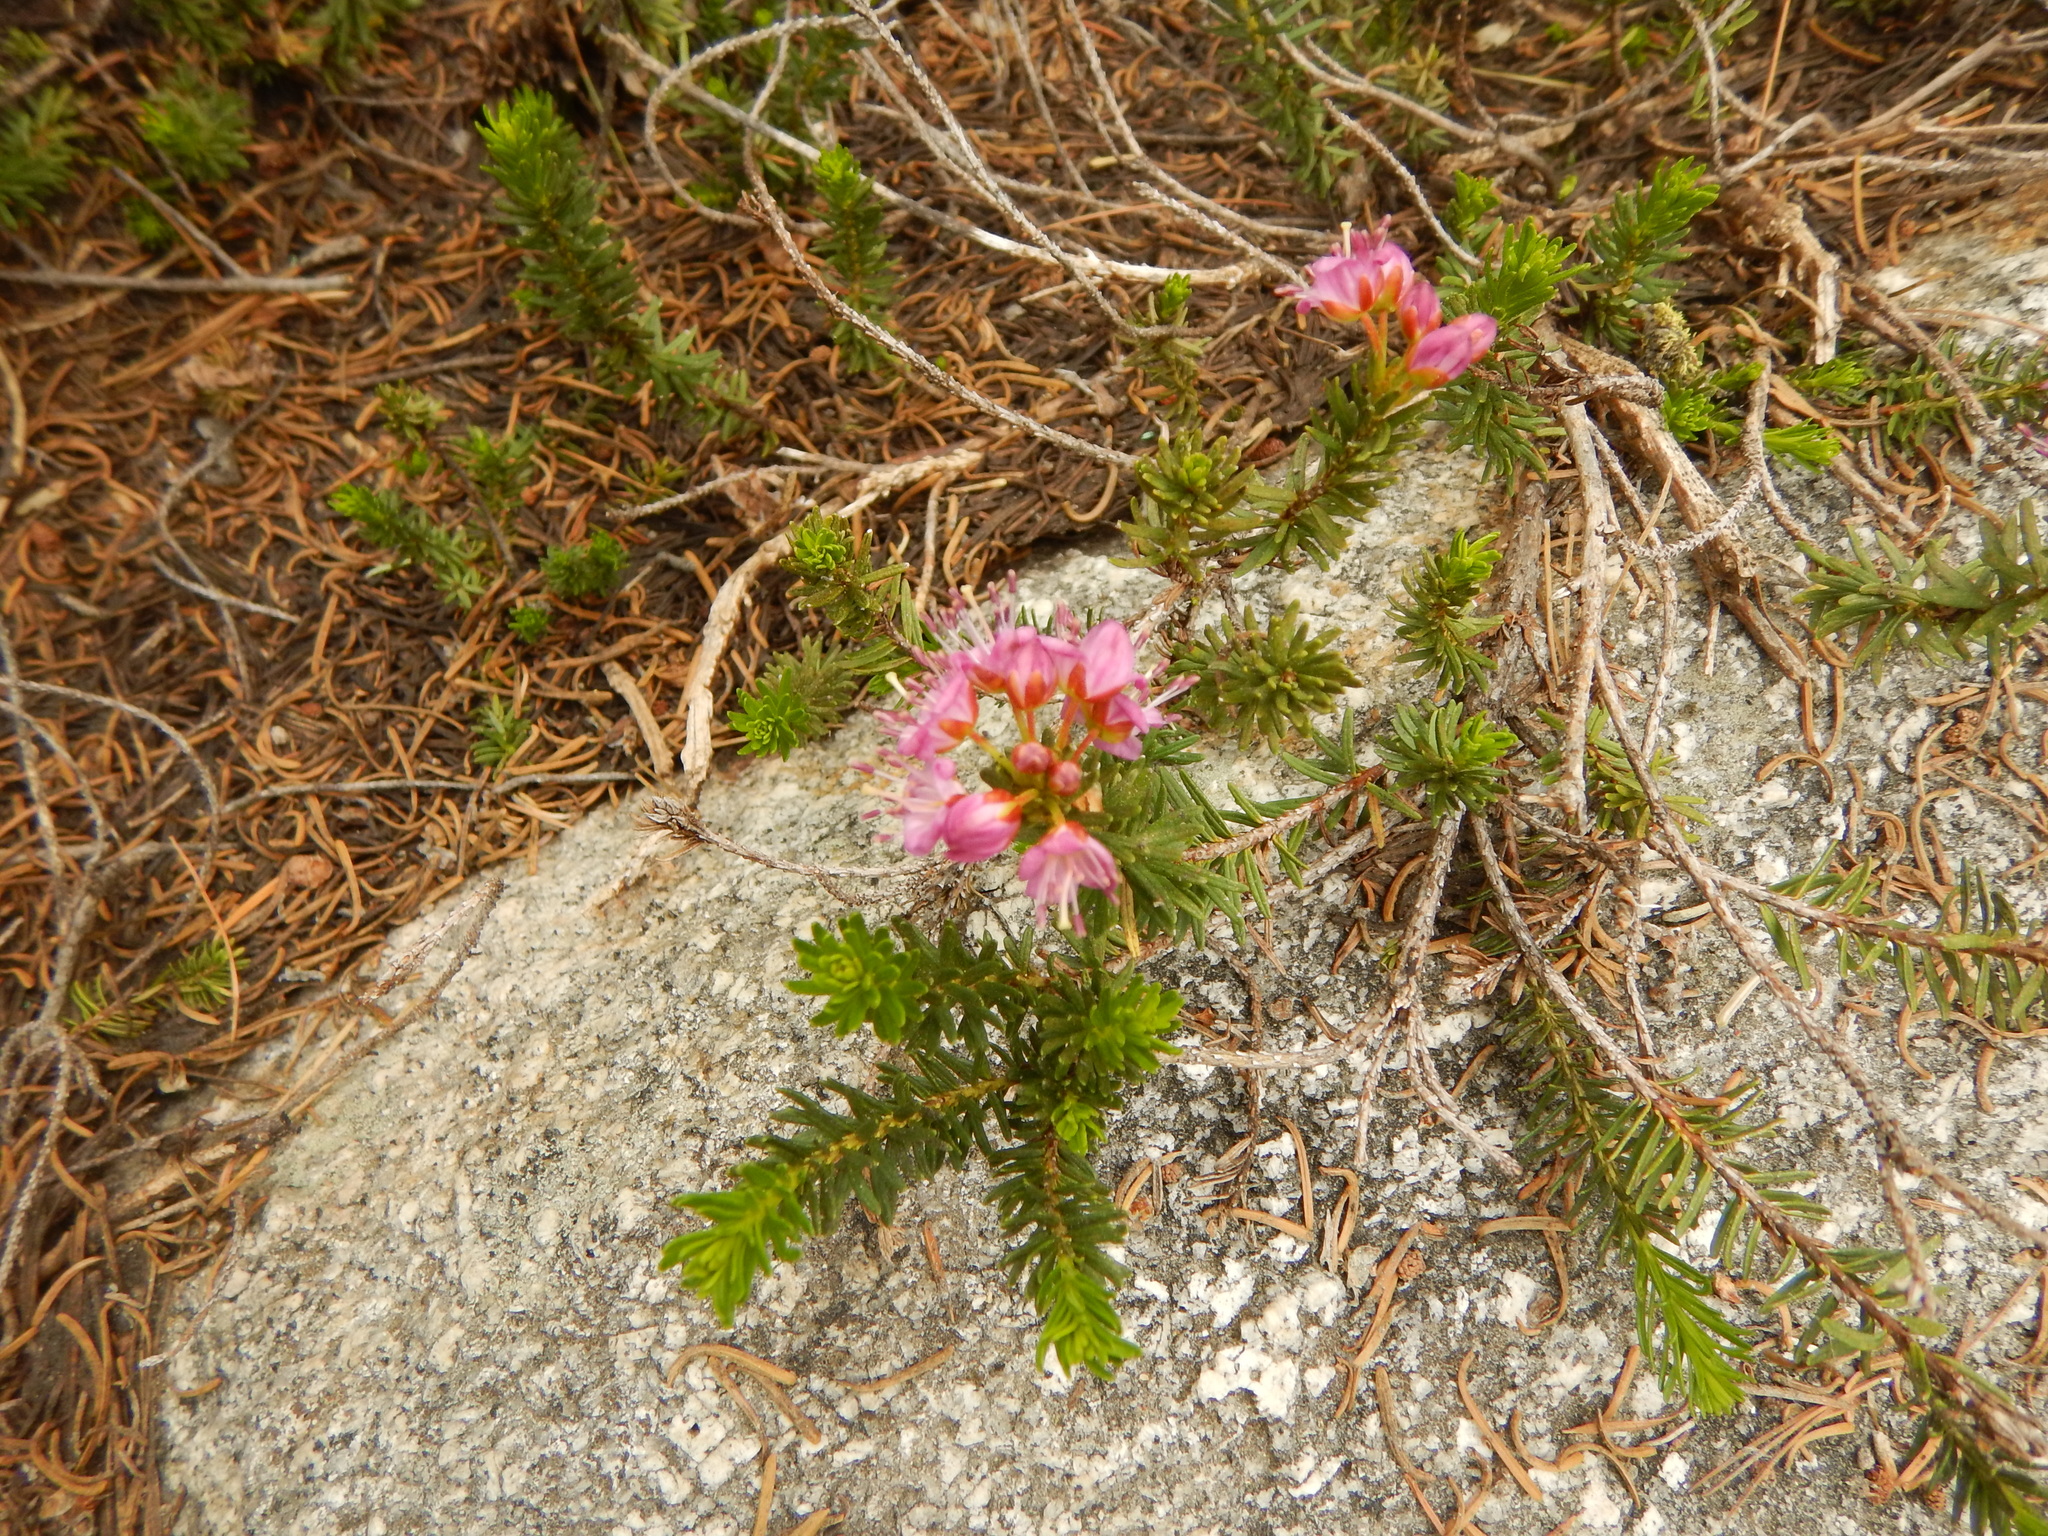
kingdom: Plantae
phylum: Tracheophyta
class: Magnoliopsida
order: Ericales
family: Ericaceae
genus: Phyllodoce
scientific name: Phyllodoce breweri
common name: Brewer's mountain-heather
